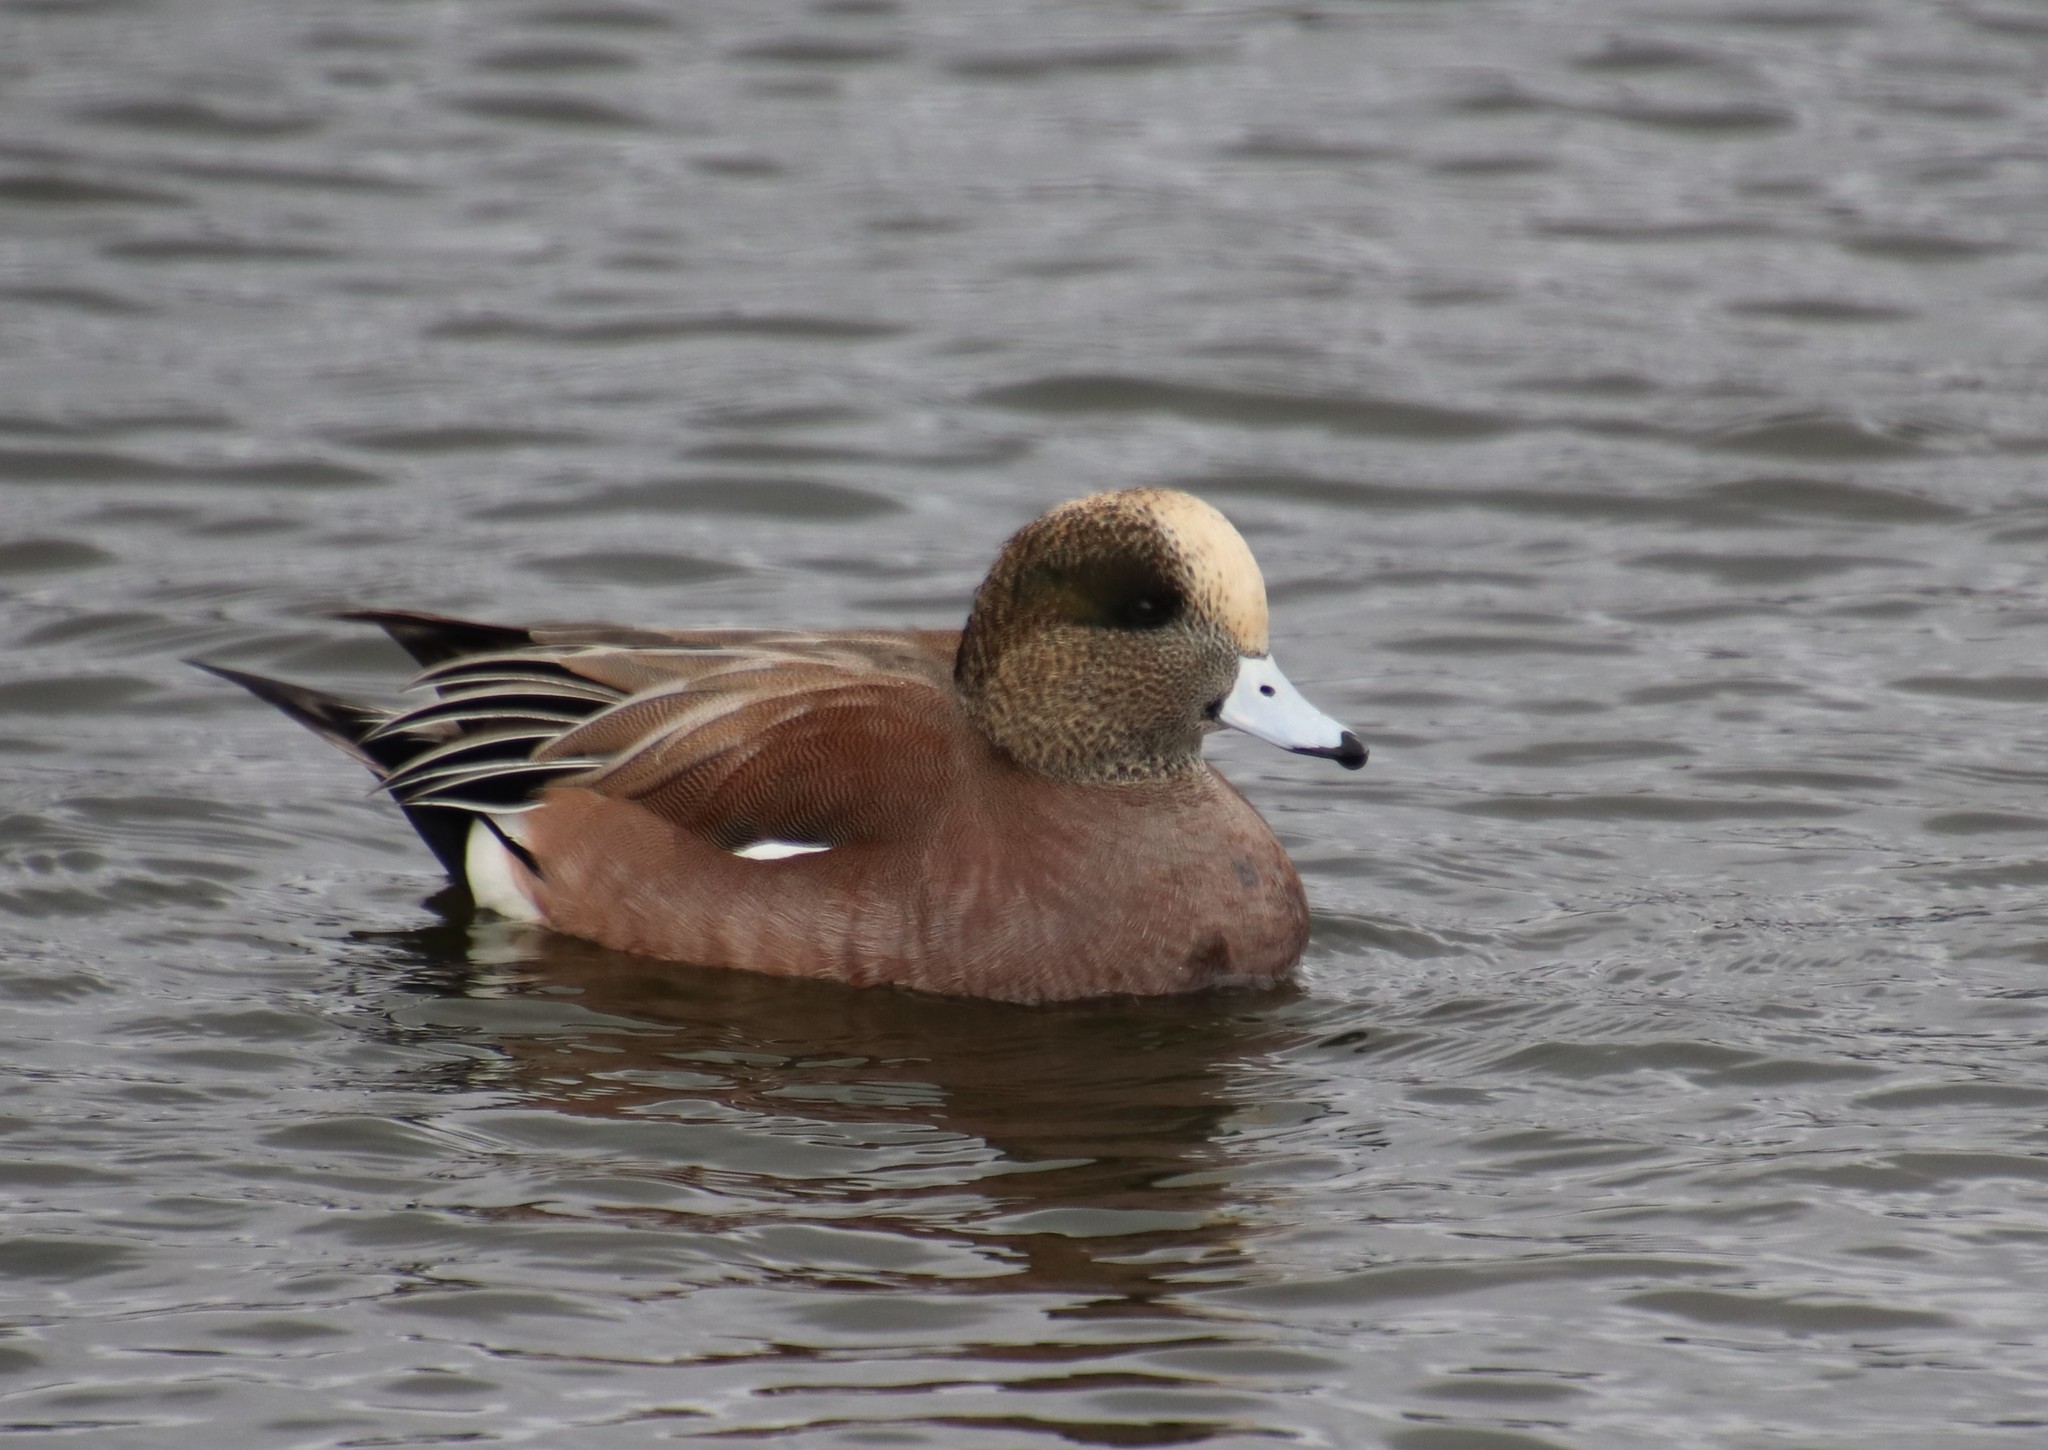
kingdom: Animalia
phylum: Chordata
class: Aves
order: Anseriformes
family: Anatidae
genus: Mareca
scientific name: Mareca americana
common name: American wigeon
